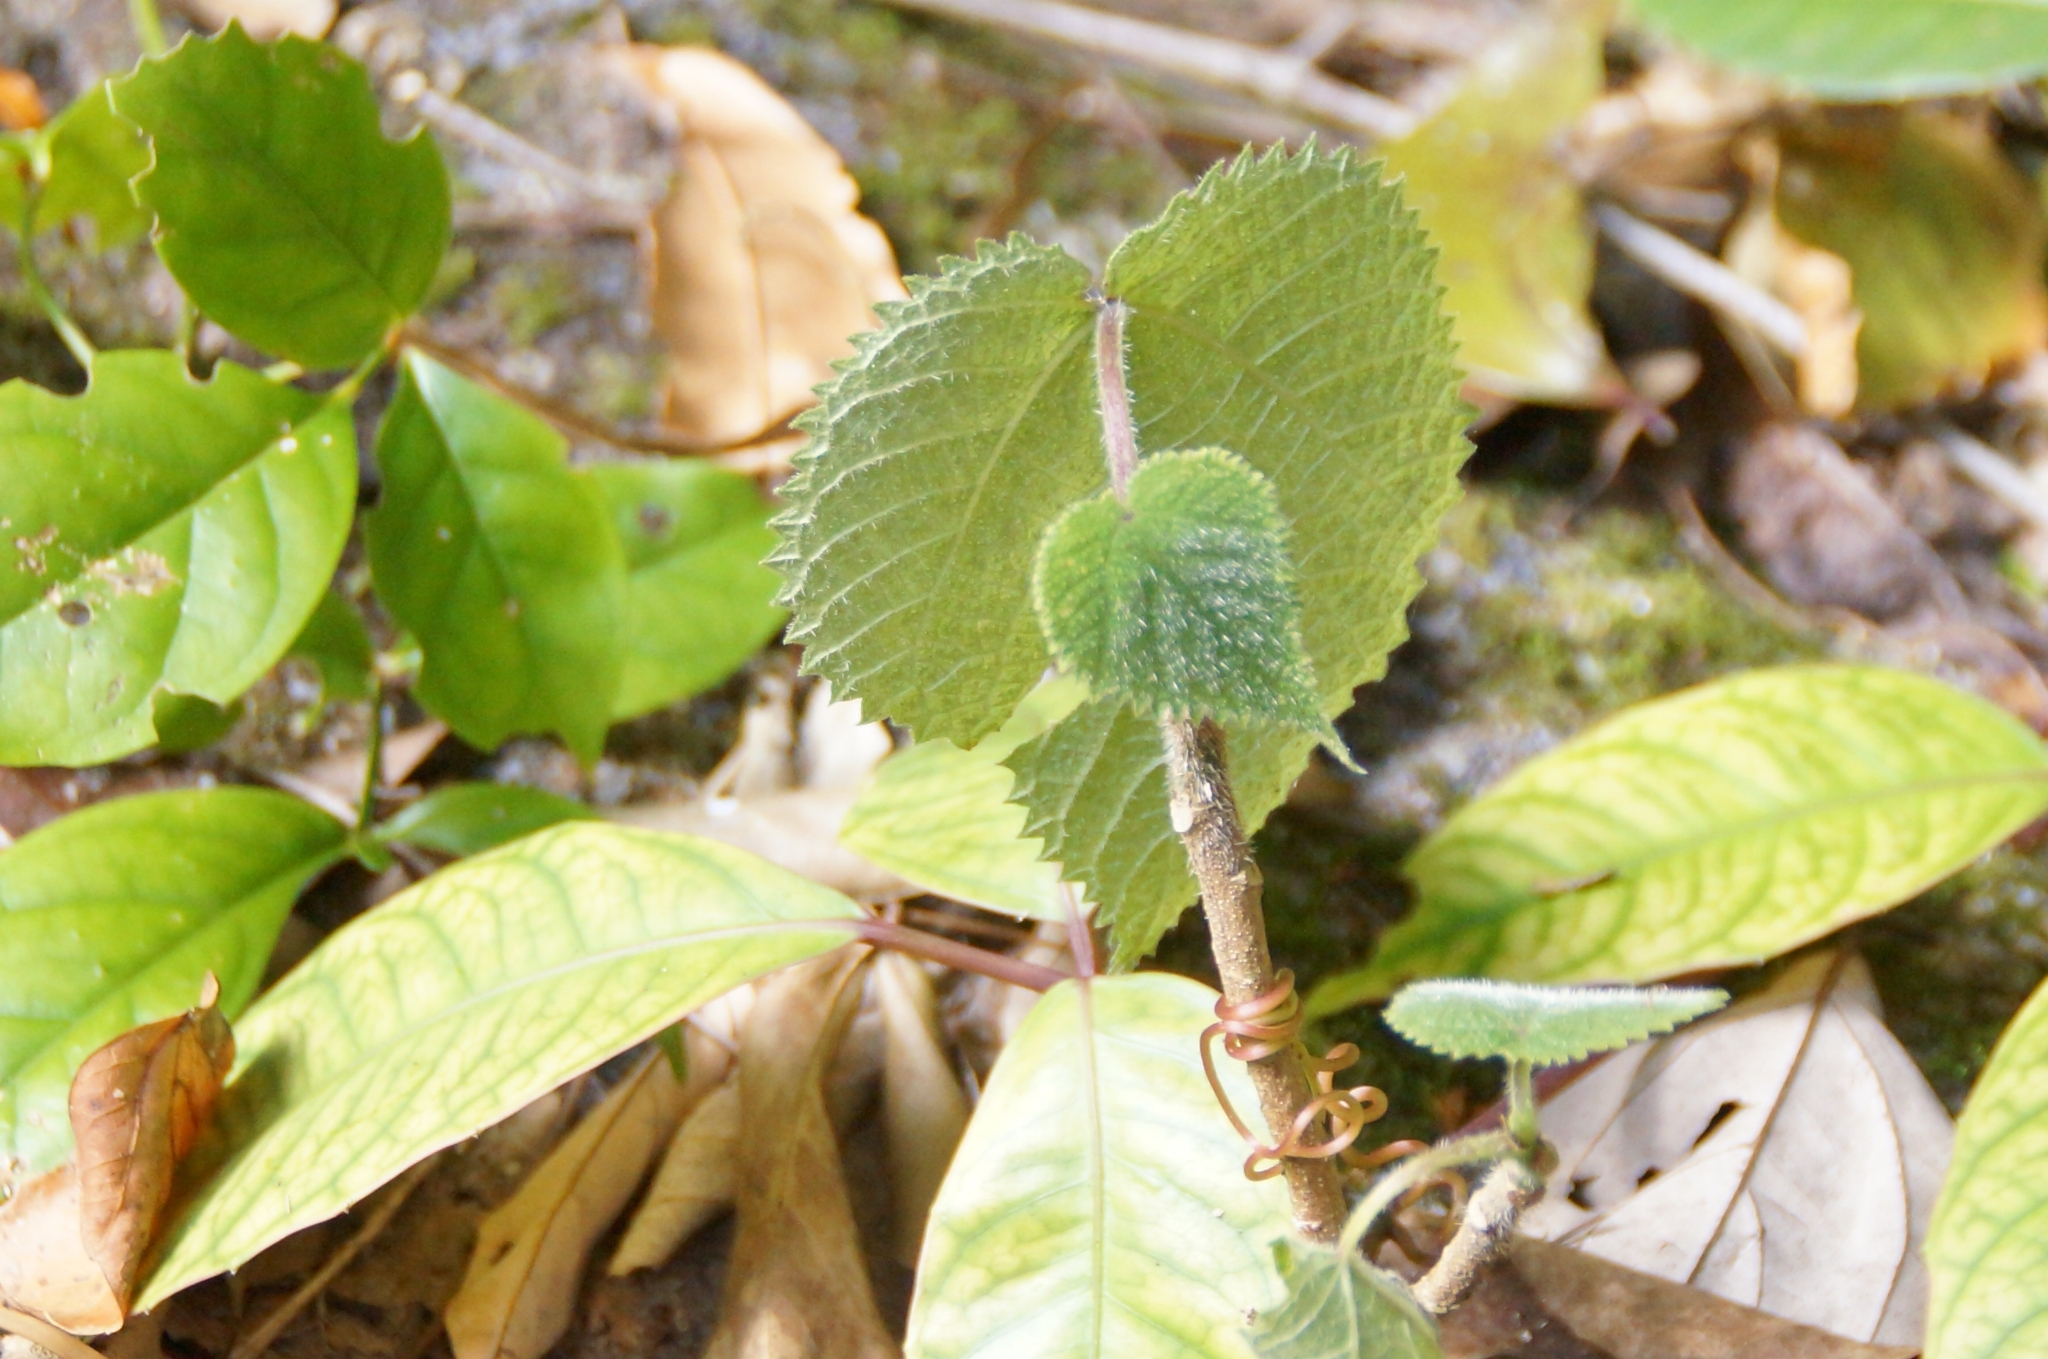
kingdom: Plantae
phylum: Tracheophyta
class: Magnoliopsida
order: Rosales
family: Urticaceae
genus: Dendrocnide
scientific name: Dendrocnide moroides
